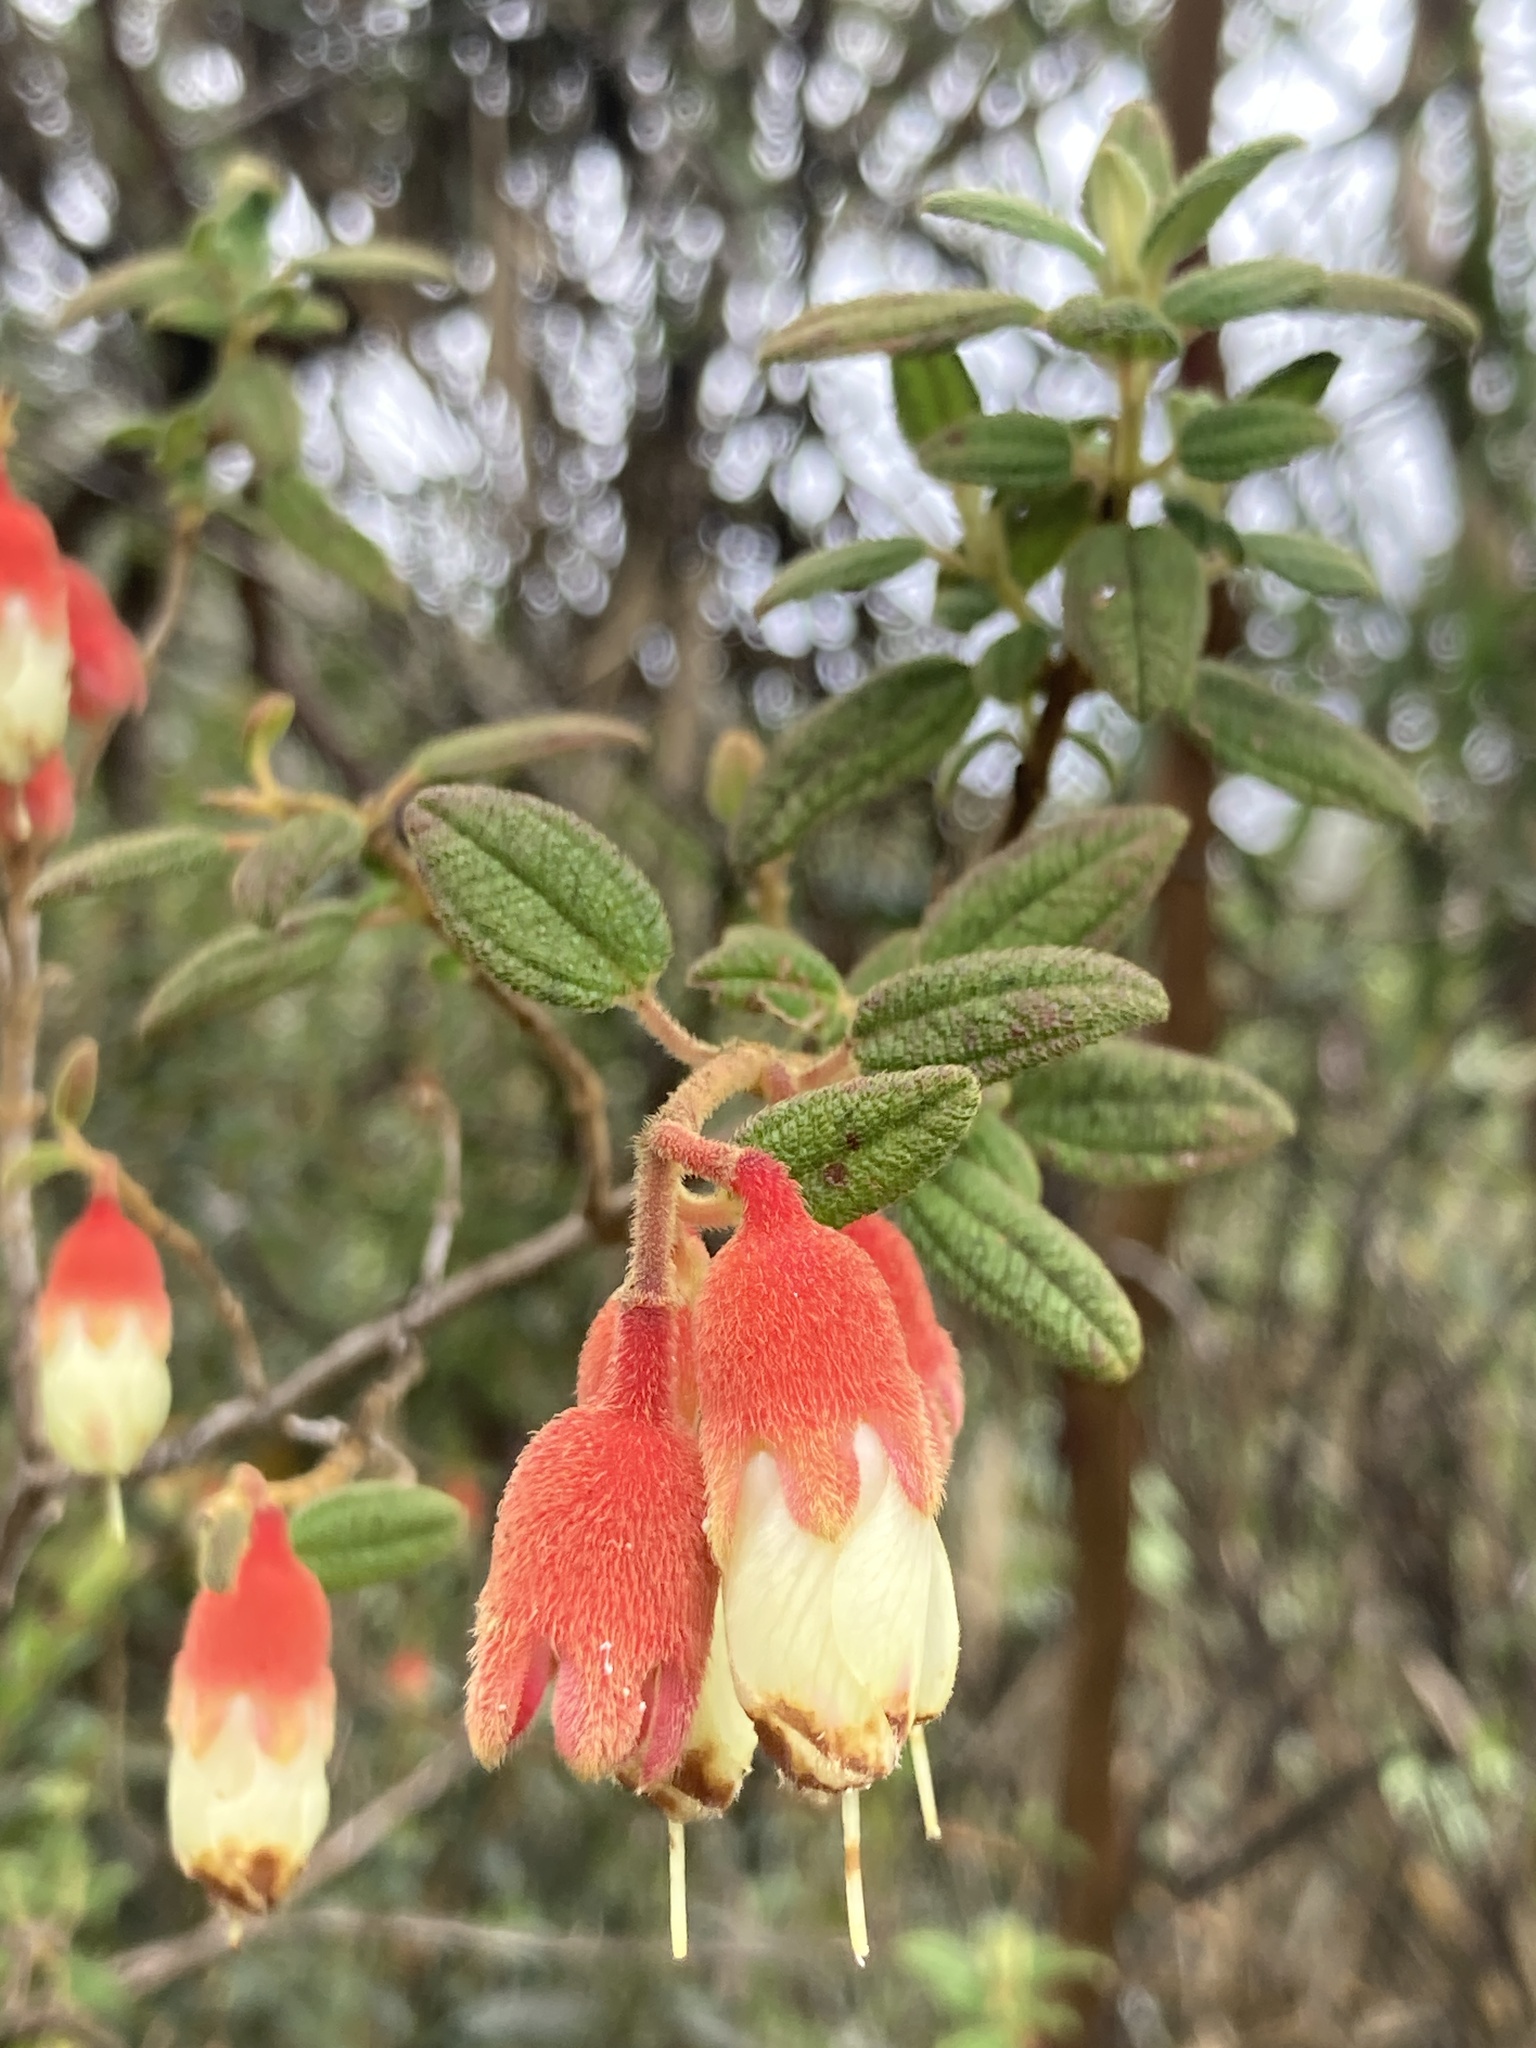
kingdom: Plantae
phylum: Tracheophyta
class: Magnoliopsida
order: Myrtales
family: Melastomataceae
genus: Brachyotum
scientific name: Brachyotum ledifolium
